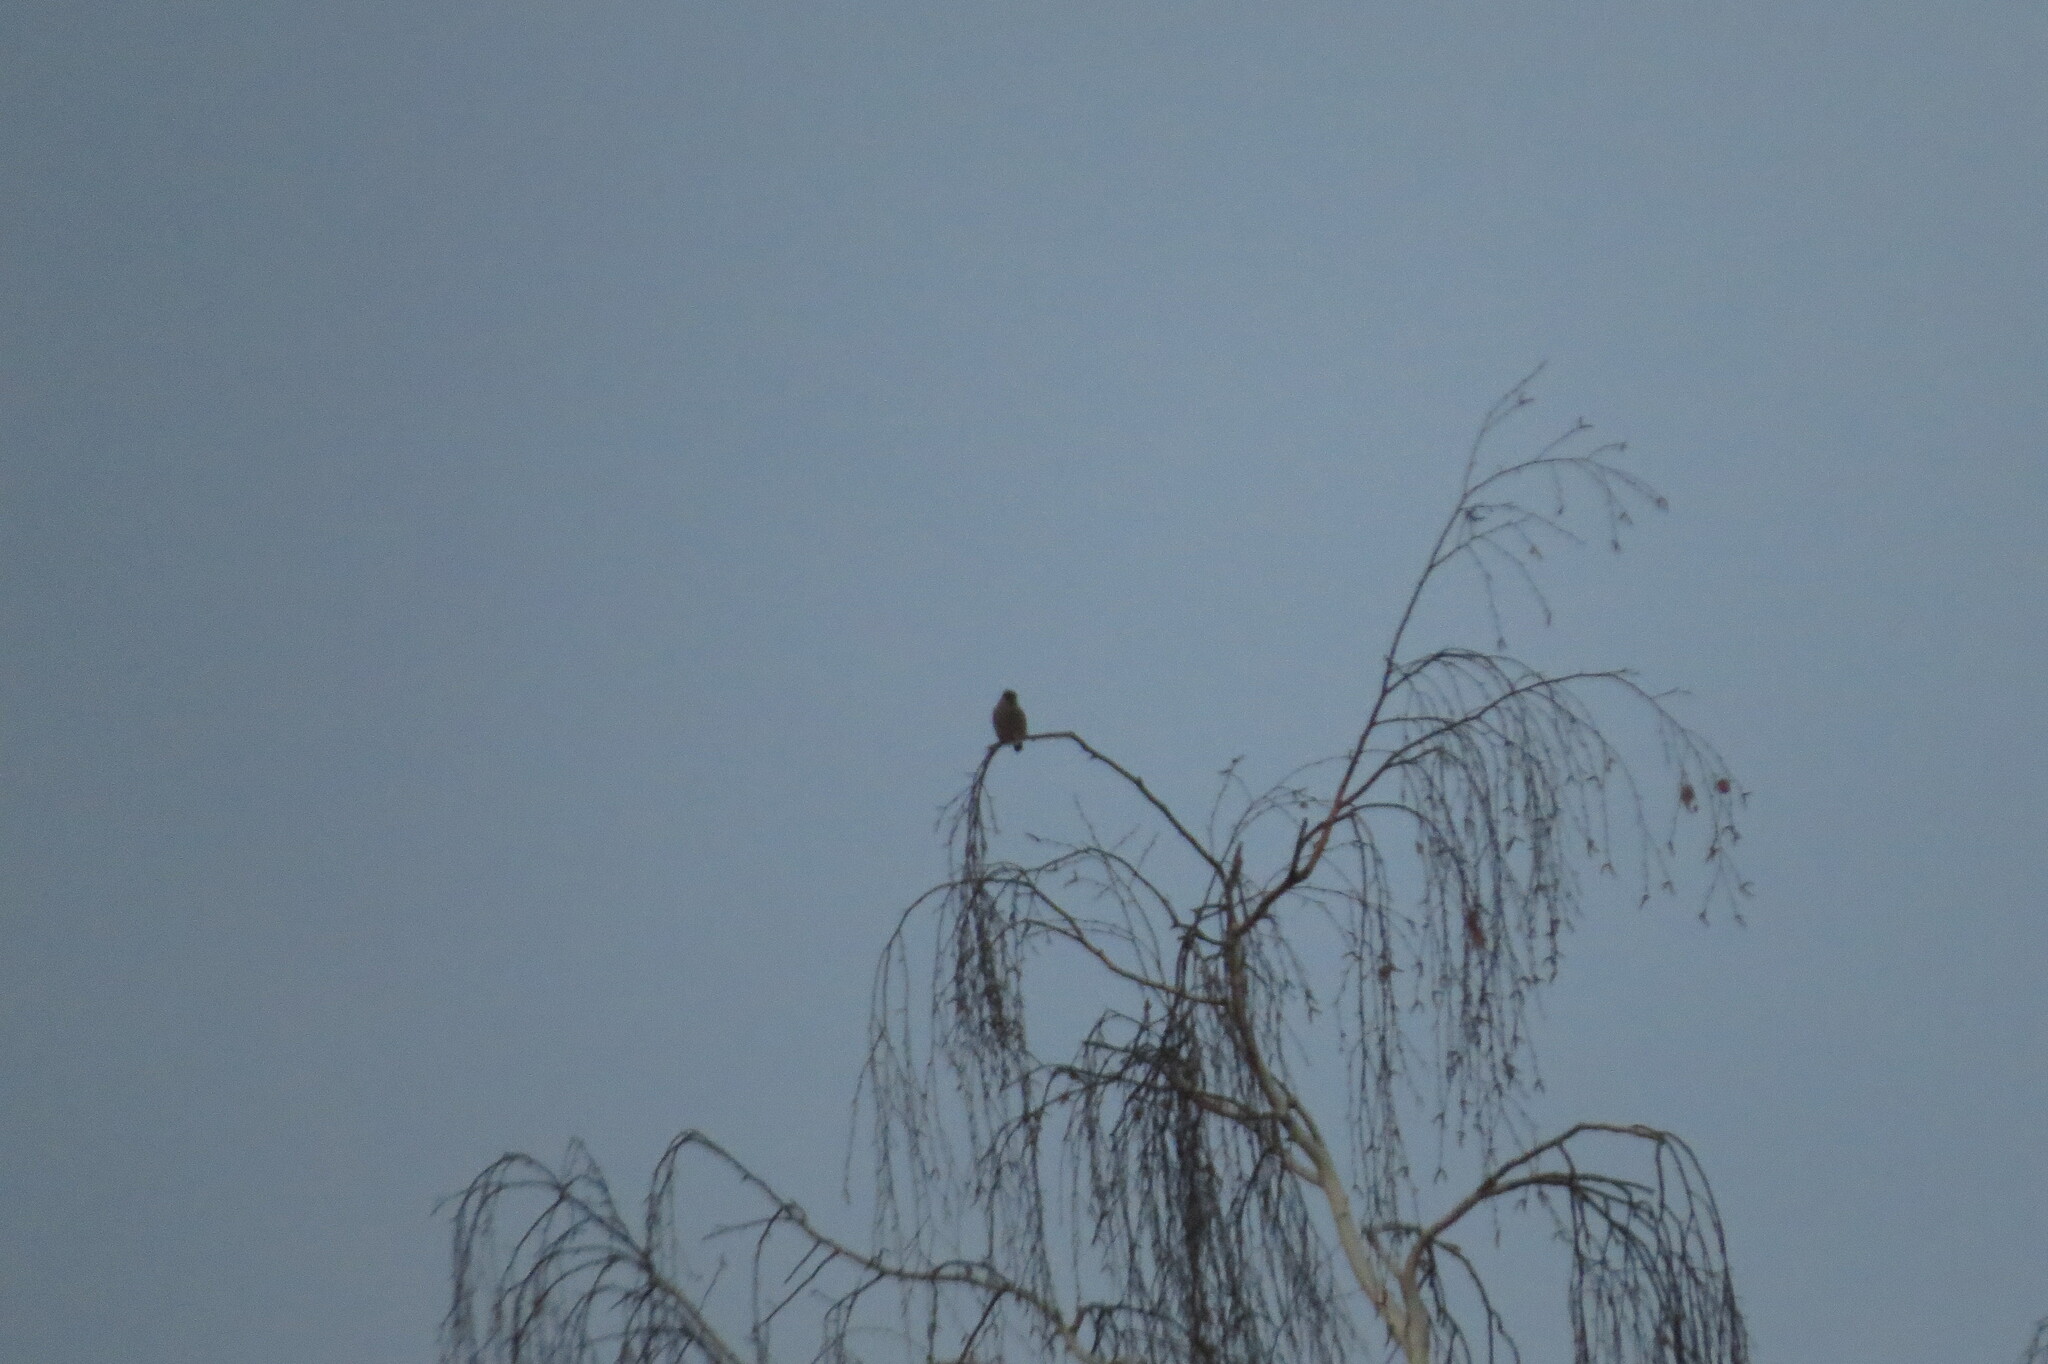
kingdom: Animalia
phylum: Chordata
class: Aves
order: Passeriformes
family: Fringillidae
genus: Pyrrhula
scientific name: Pyrrhula pyrrhula
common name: Eurasian bullfinch
